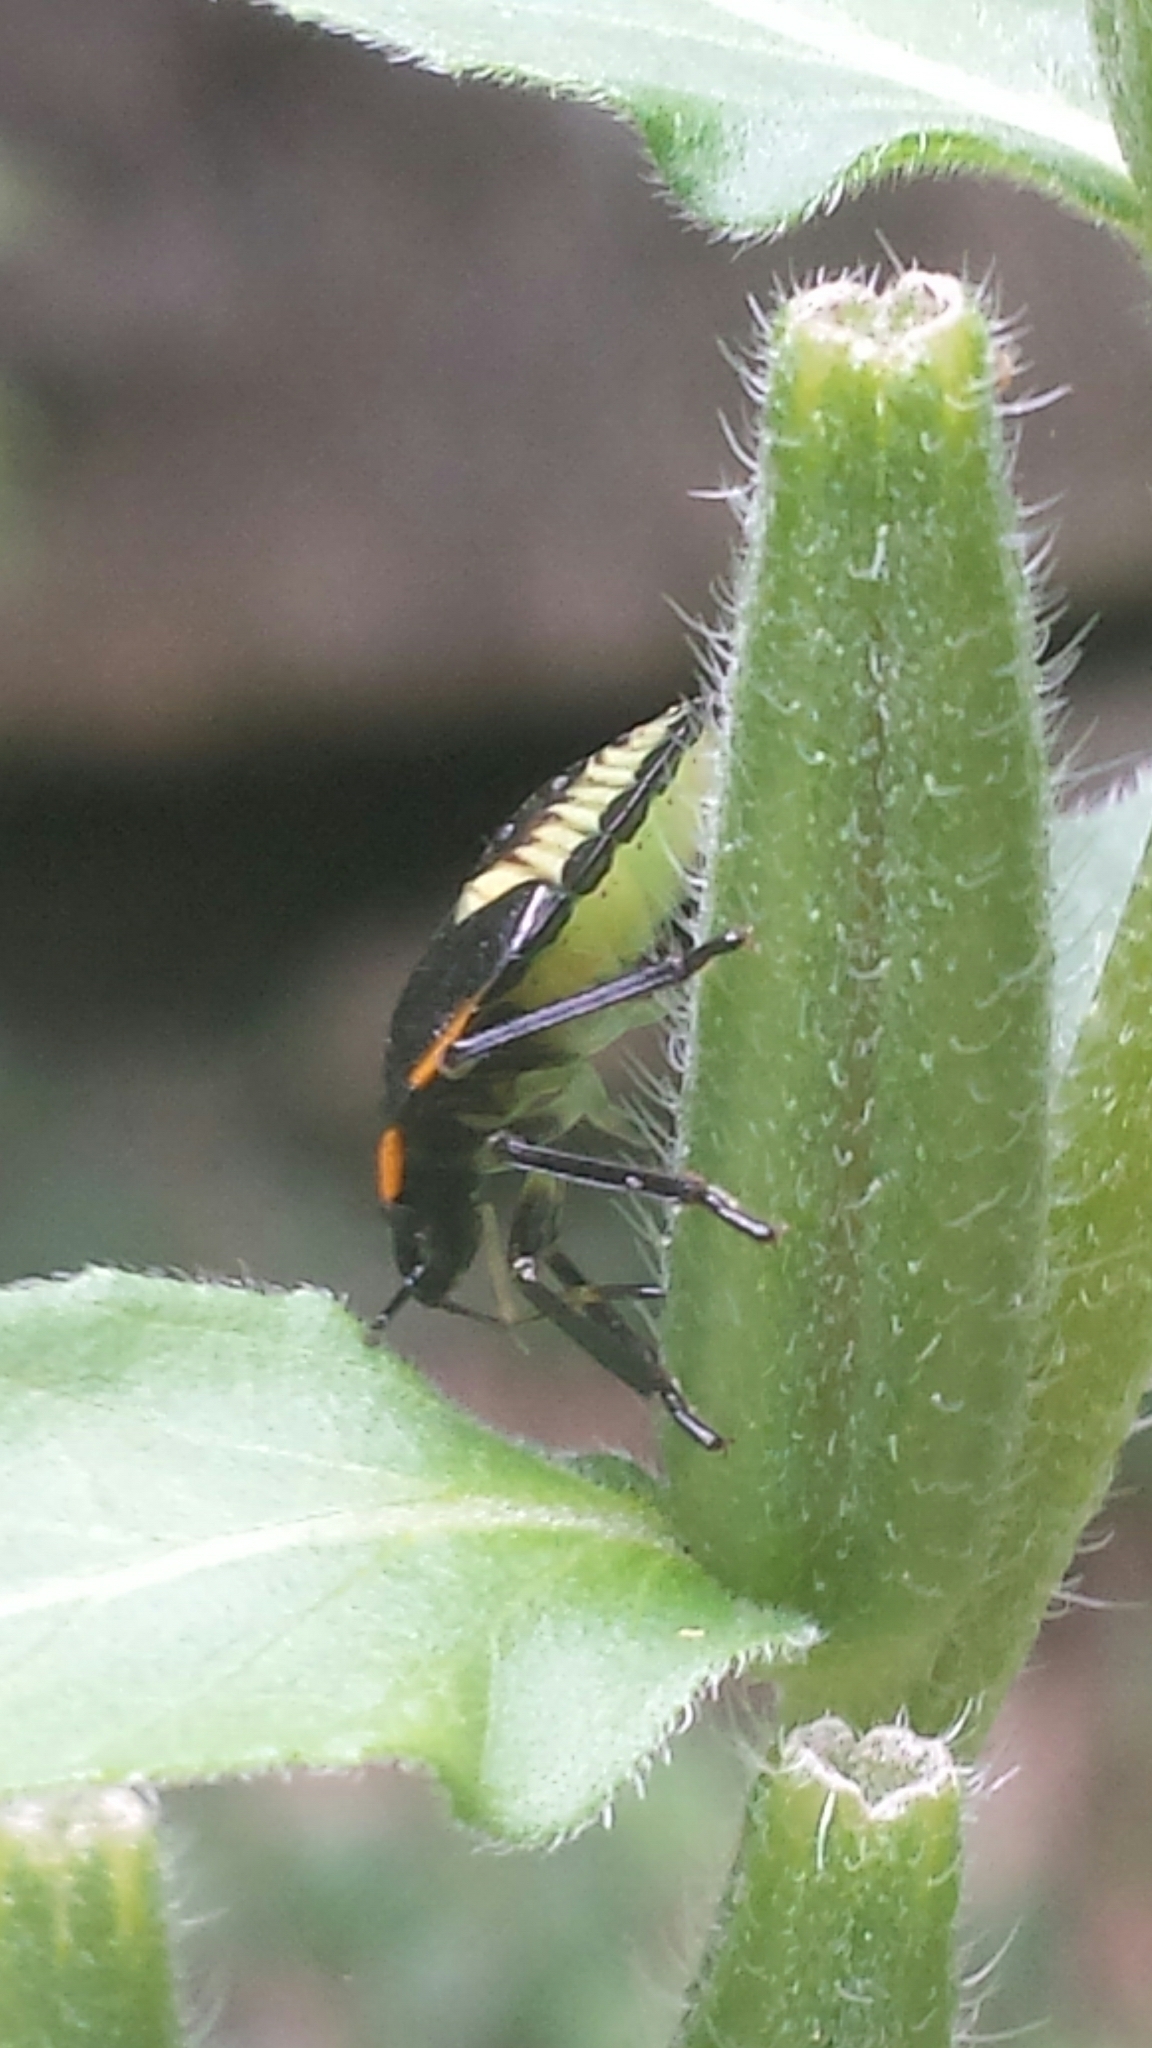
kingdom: Animalia
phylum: Arthropoda
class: Insecta
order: Hemiptera
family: Pentatomidae
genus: Chinavia
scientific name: Chinavia hilaris
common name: Green stink bug
